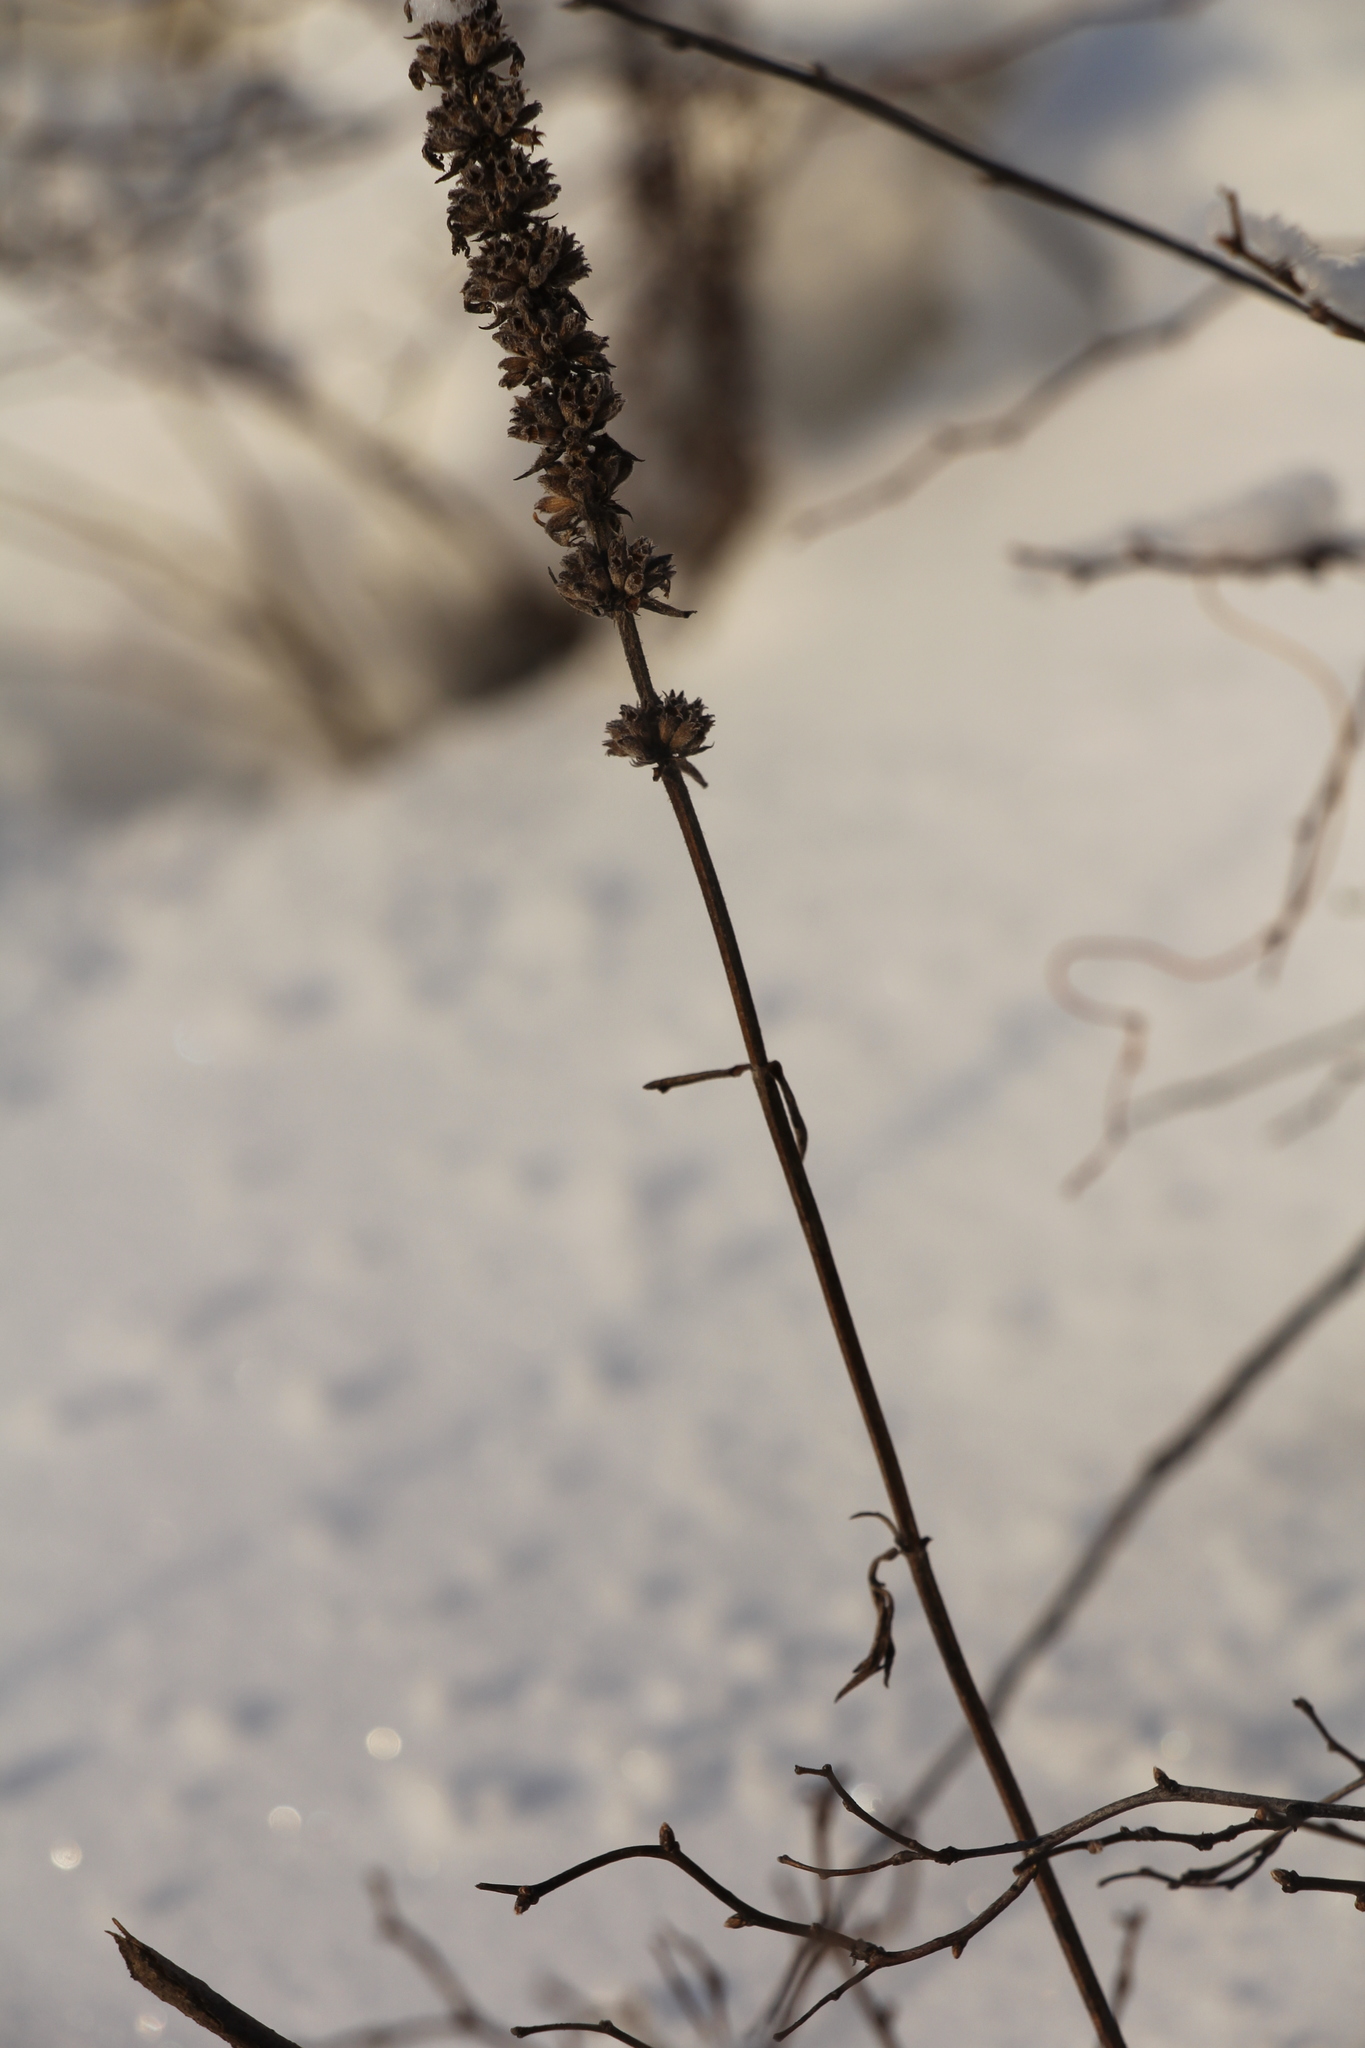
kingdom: Plantae
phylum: Tracheophyta
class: Magnoliopsida
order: Lamiales
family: Lamiaceae
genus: Nepeta
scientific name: Nepeta multifida
